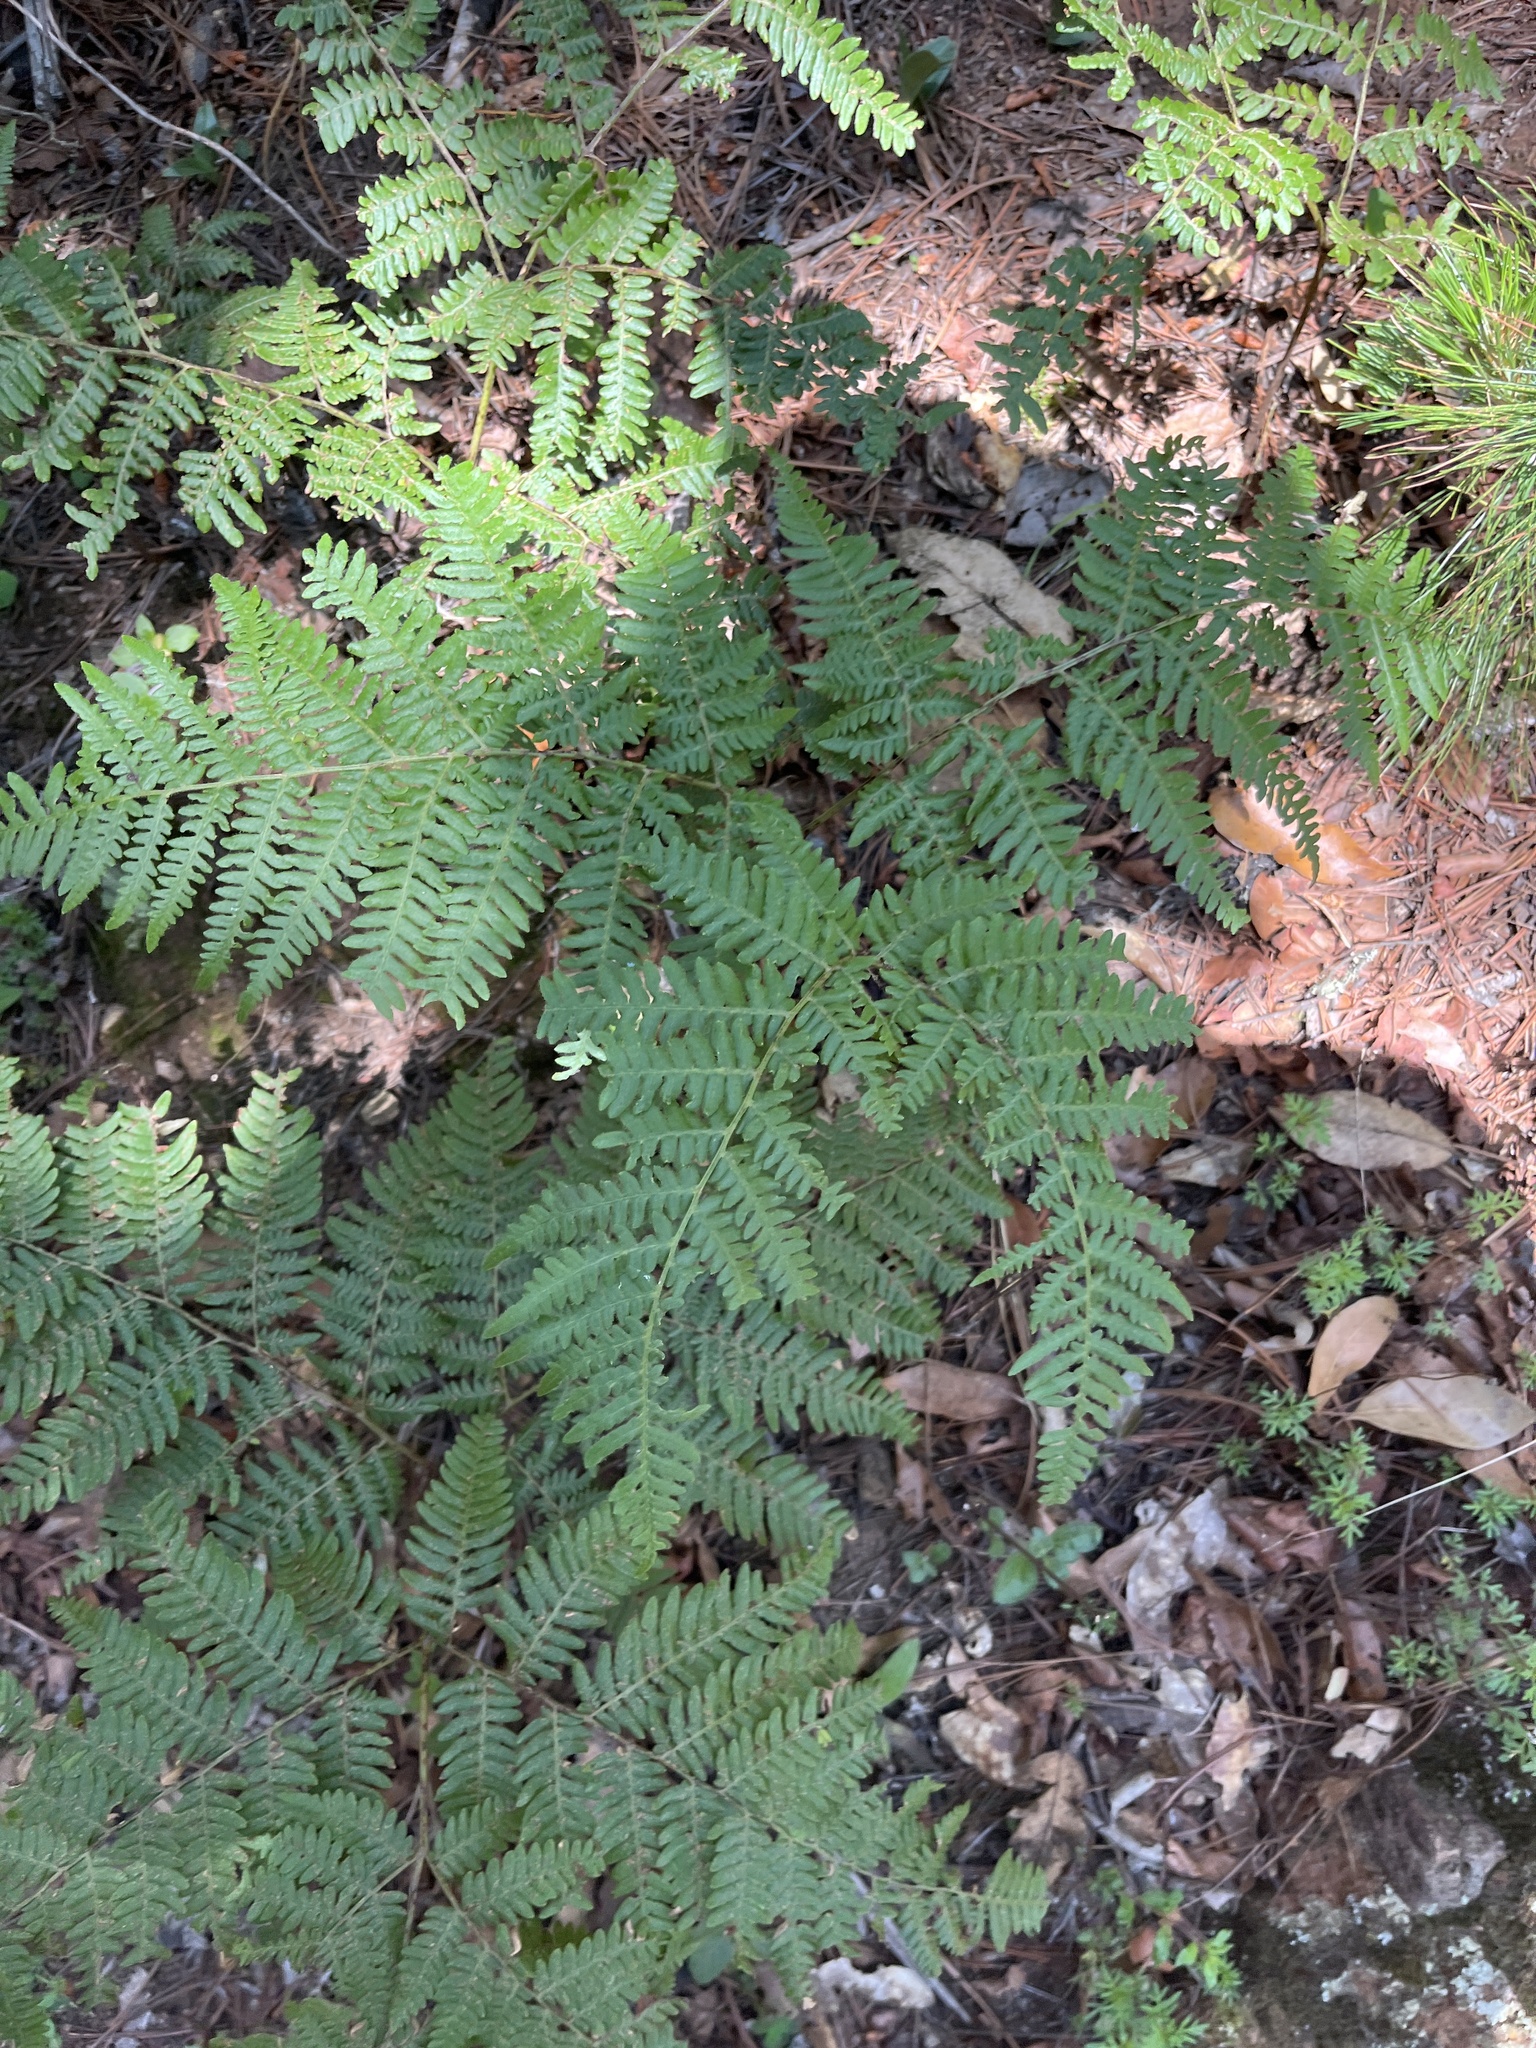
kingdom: Plantae
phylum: Tracheophyta
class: Polypodiopsida
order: Polypodiales
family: Dennstaedtiaceae
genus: Pteridium
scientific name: Pteridium aquilinum
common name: Bracken
